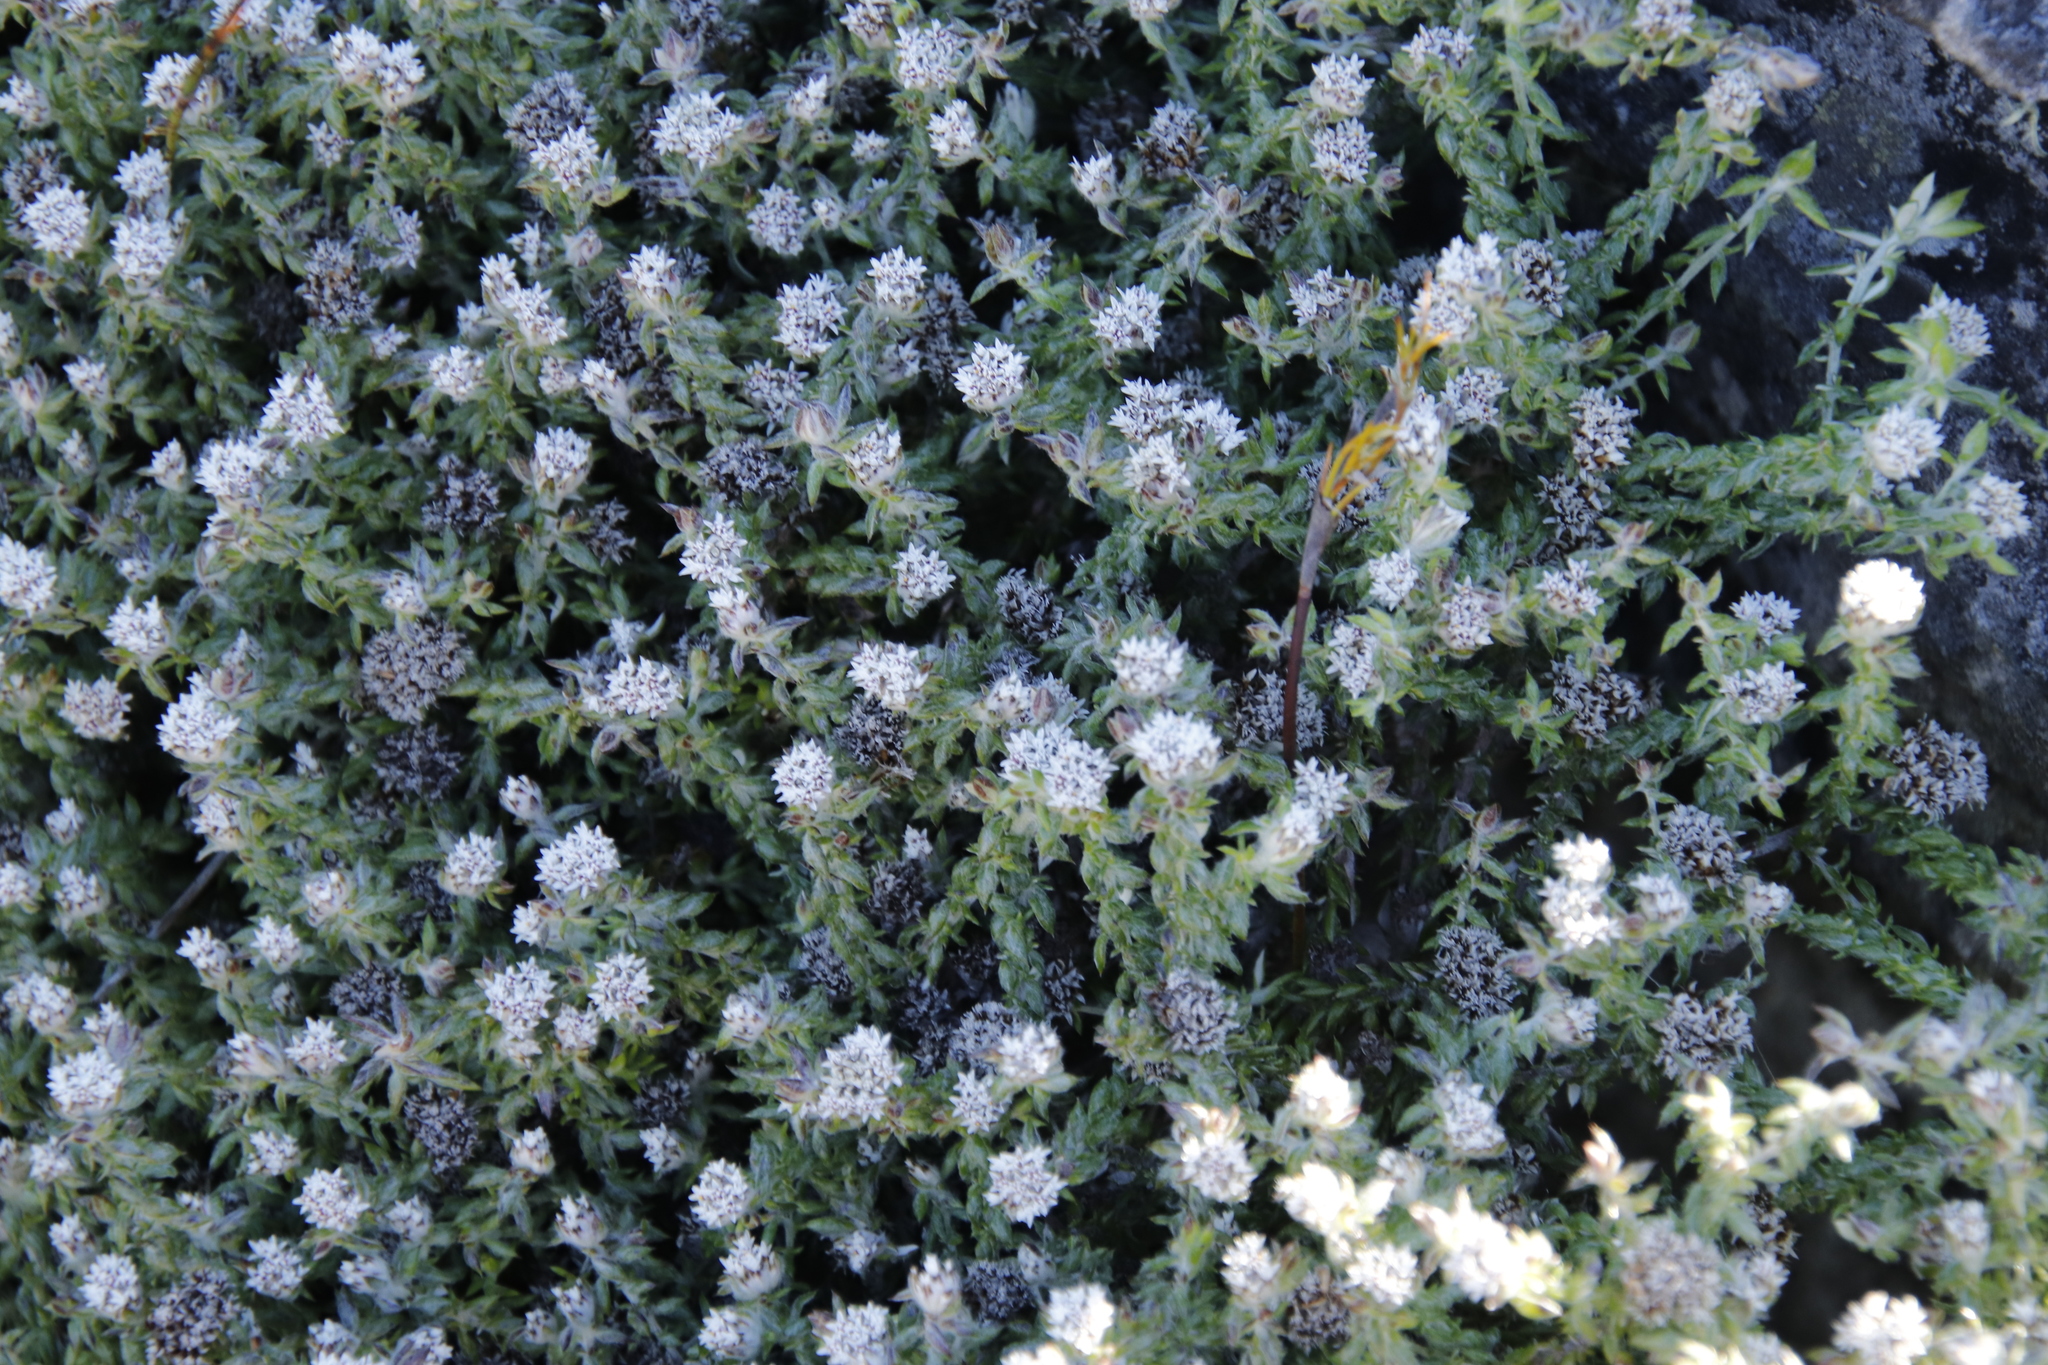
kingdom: Plantae
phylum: Tracheophyta
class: Magnoliopsida
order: Asterales
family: Asteraceae
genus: Metalasia
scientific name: Metalasia divergens
